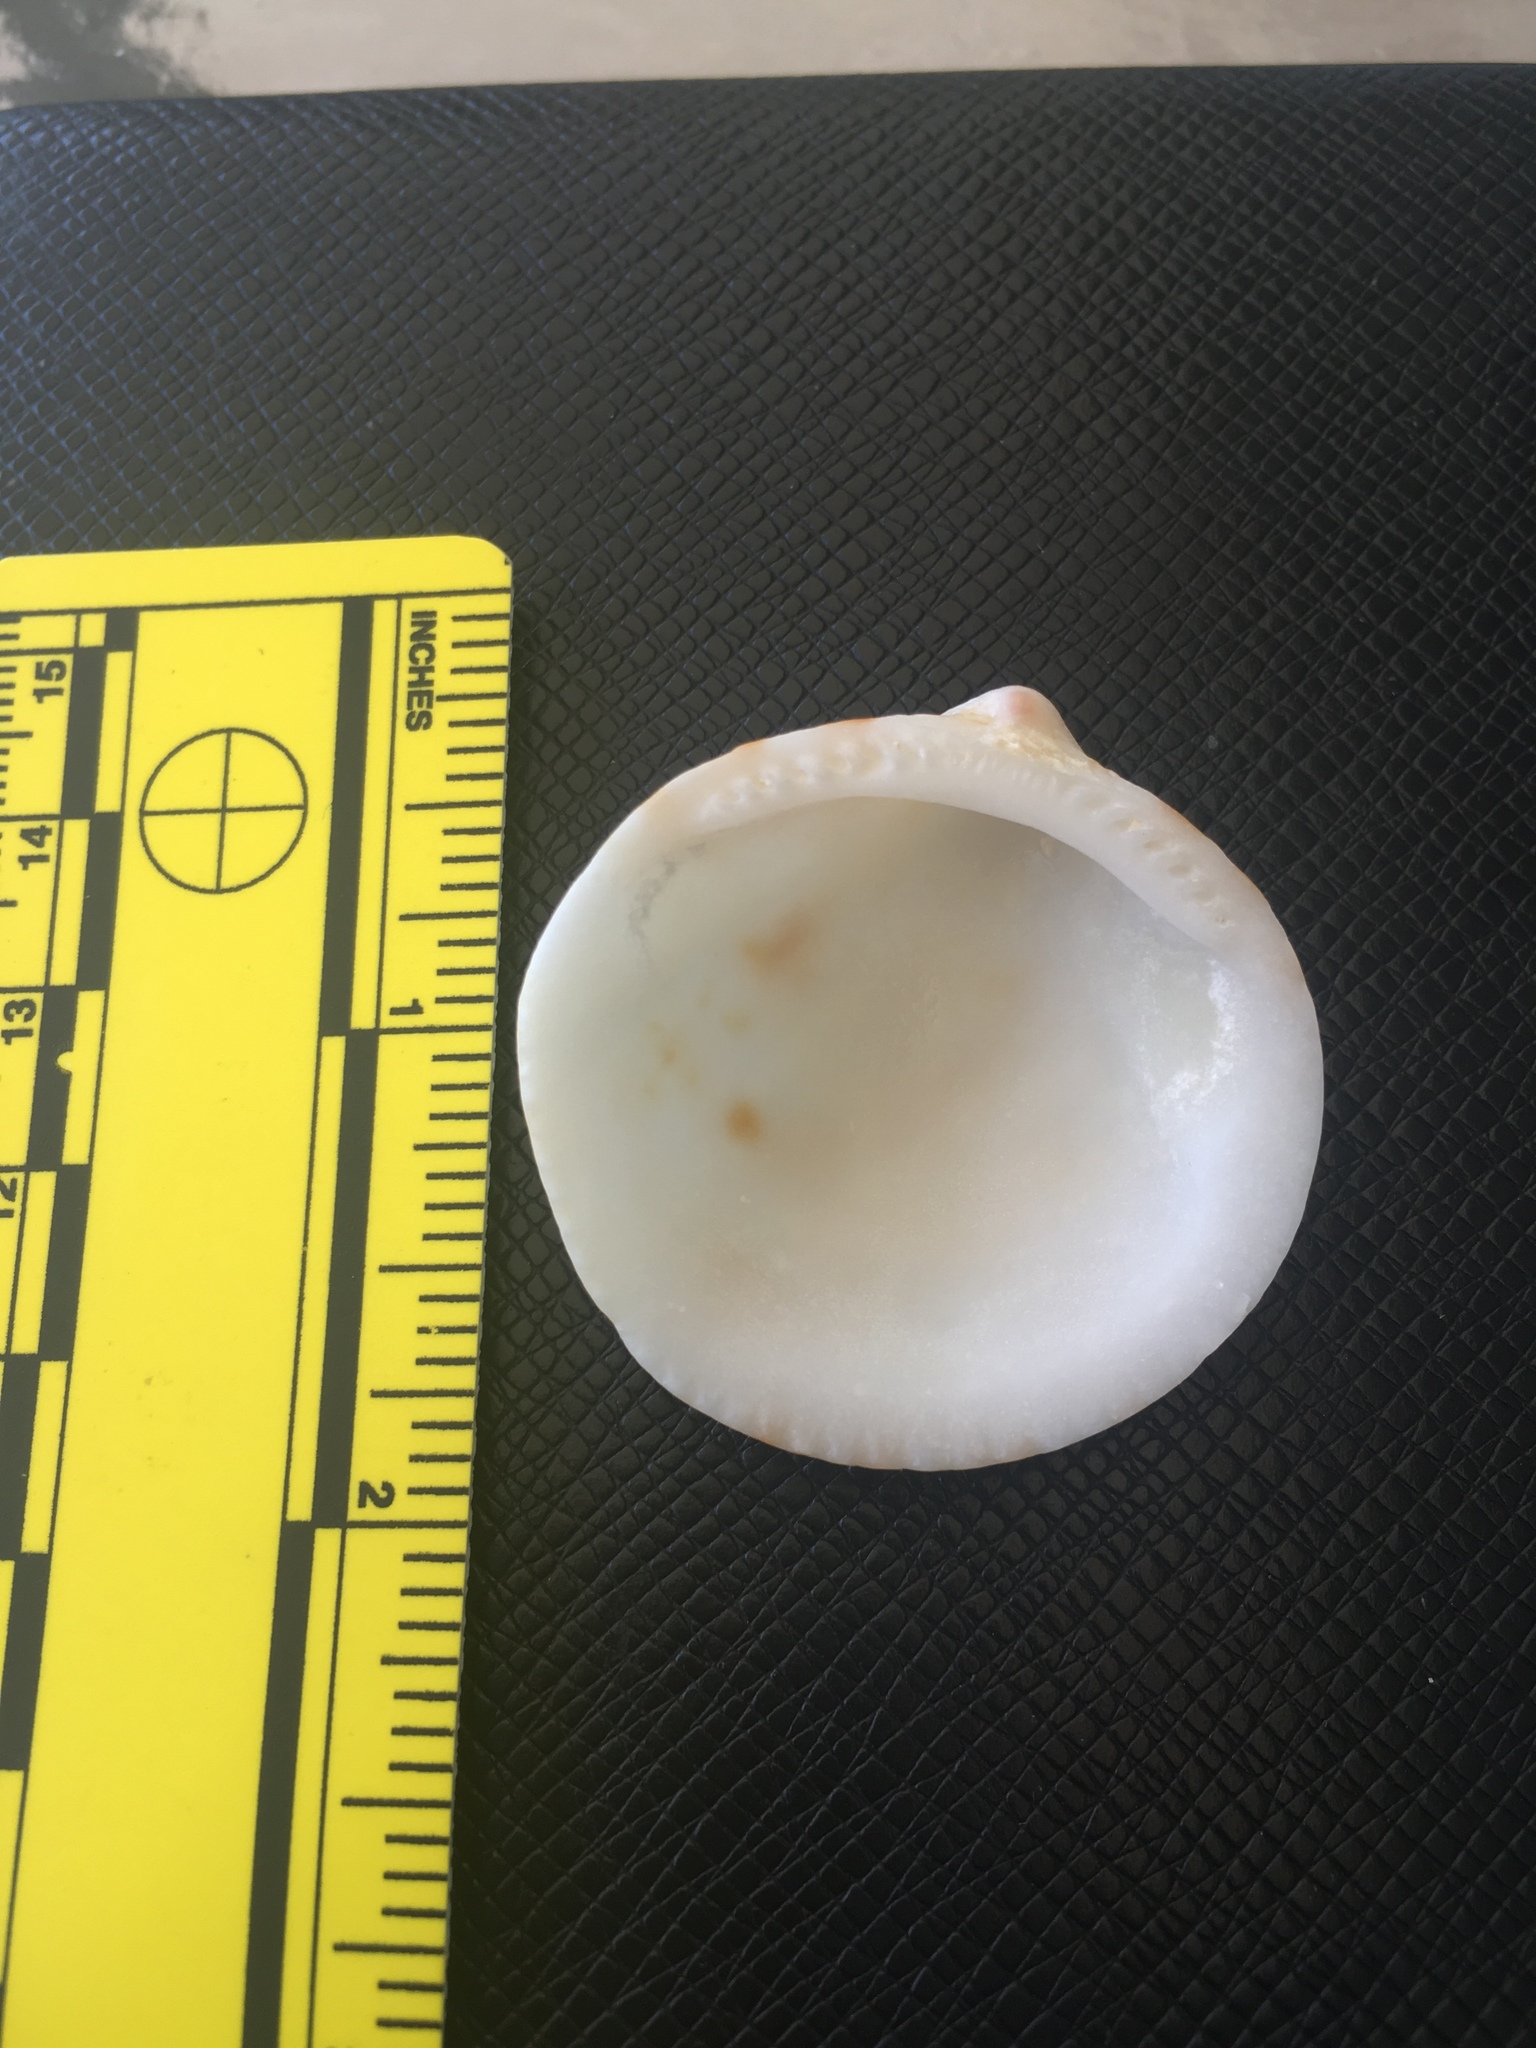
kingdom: Animalia
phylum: Mollusca
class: Bivalvia
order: Arcida
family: Glycymerididae
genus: Glycymeris
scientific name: Glycymeris undata
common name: Atlantic bittersweet
